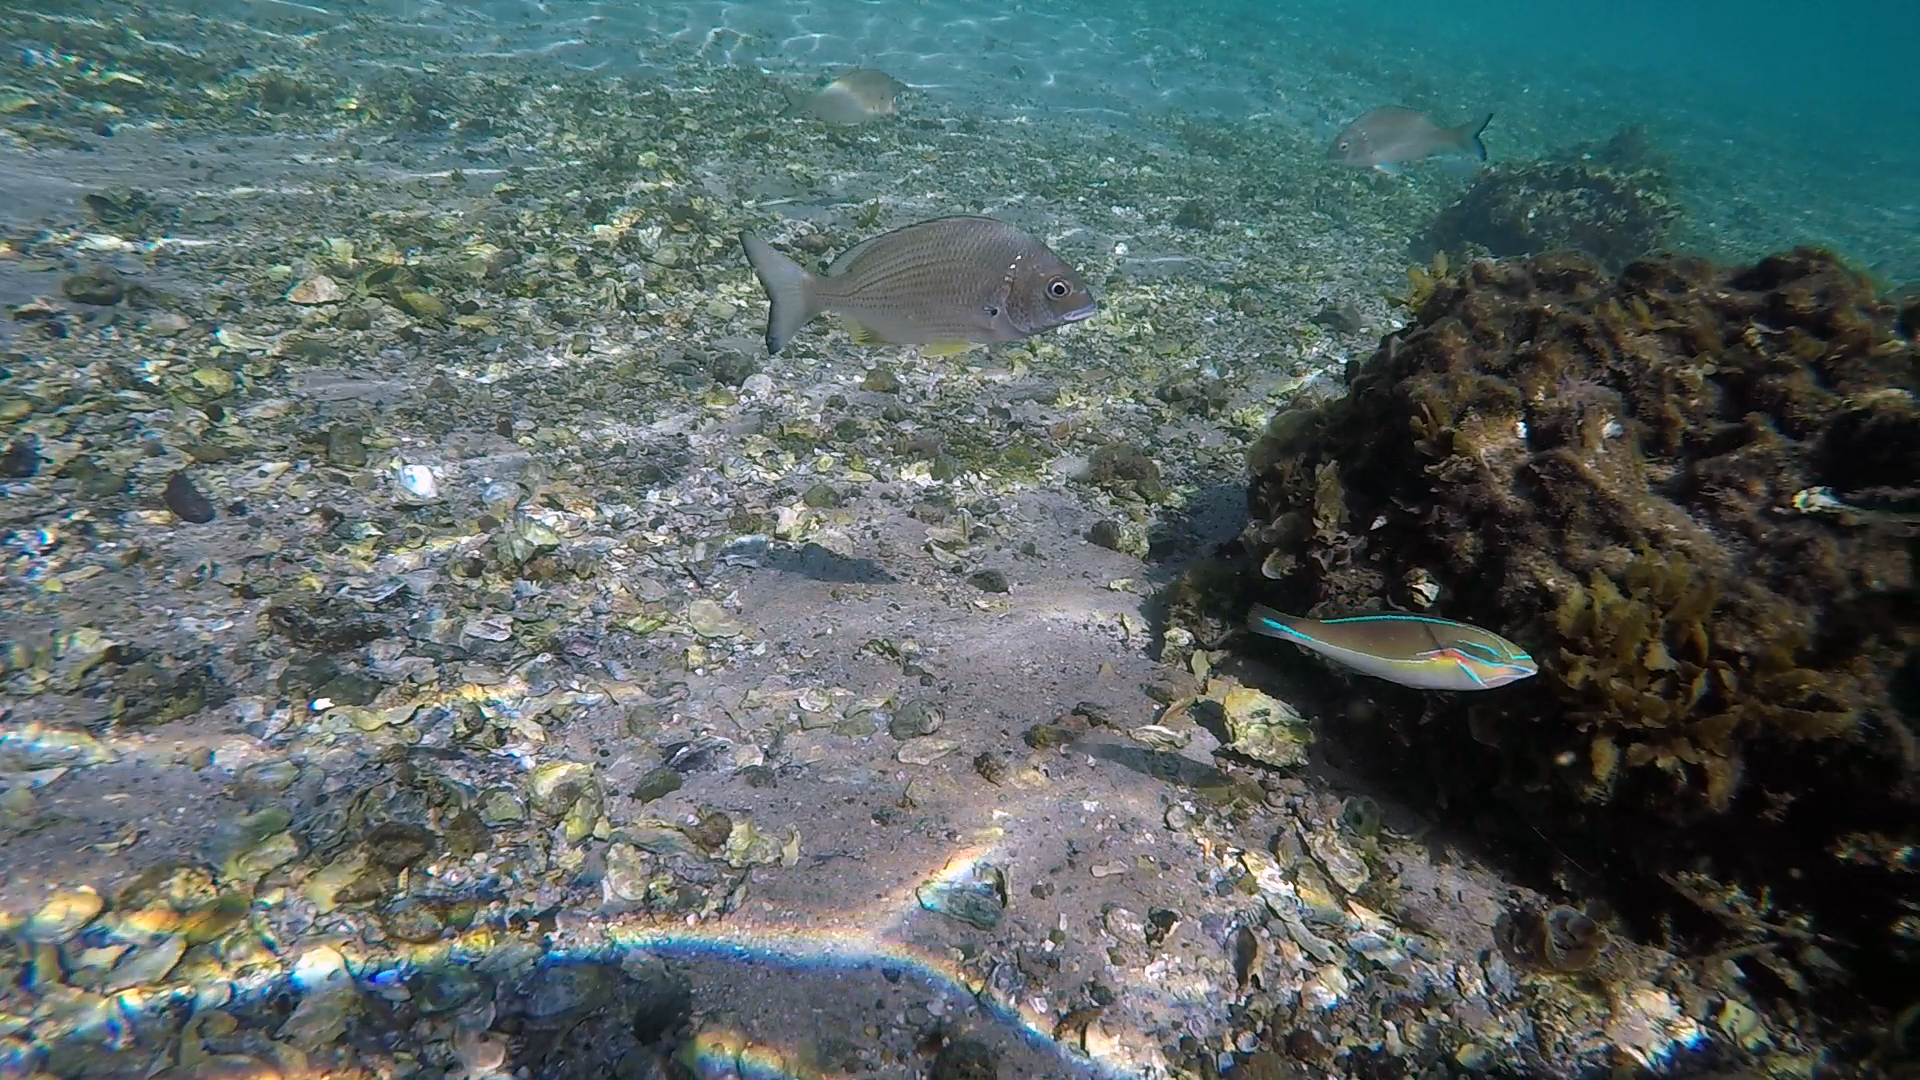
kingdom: Animalia
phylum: Chordata
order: Perciformes
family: Labridae
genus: Stethojulis
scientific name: Stethojulis bandanensis
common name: Red shoulder wrasse
